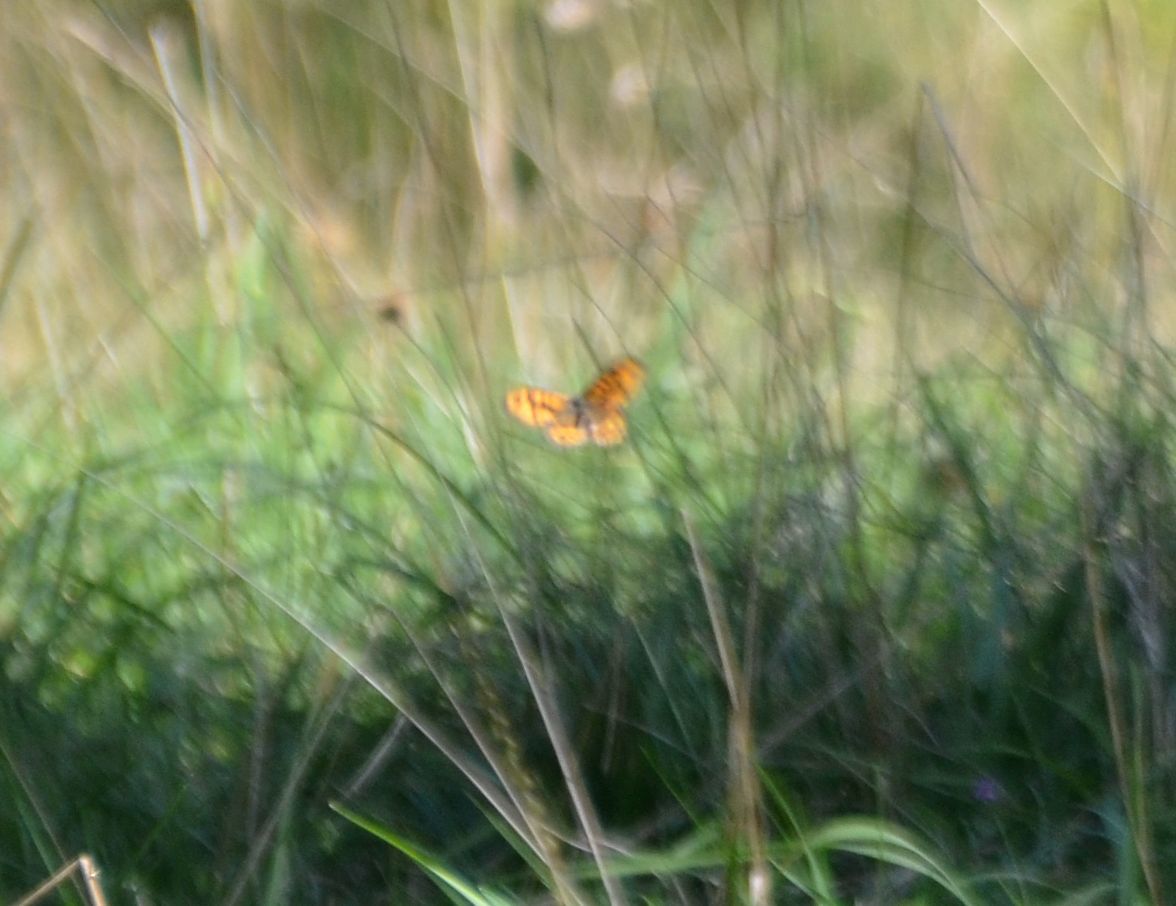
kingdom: Animalia
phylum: Arthropoda
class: Insecta
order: Lepidoptera
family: Nymphalidae
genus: Pararge
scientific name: Pararge Lasiommata megera
